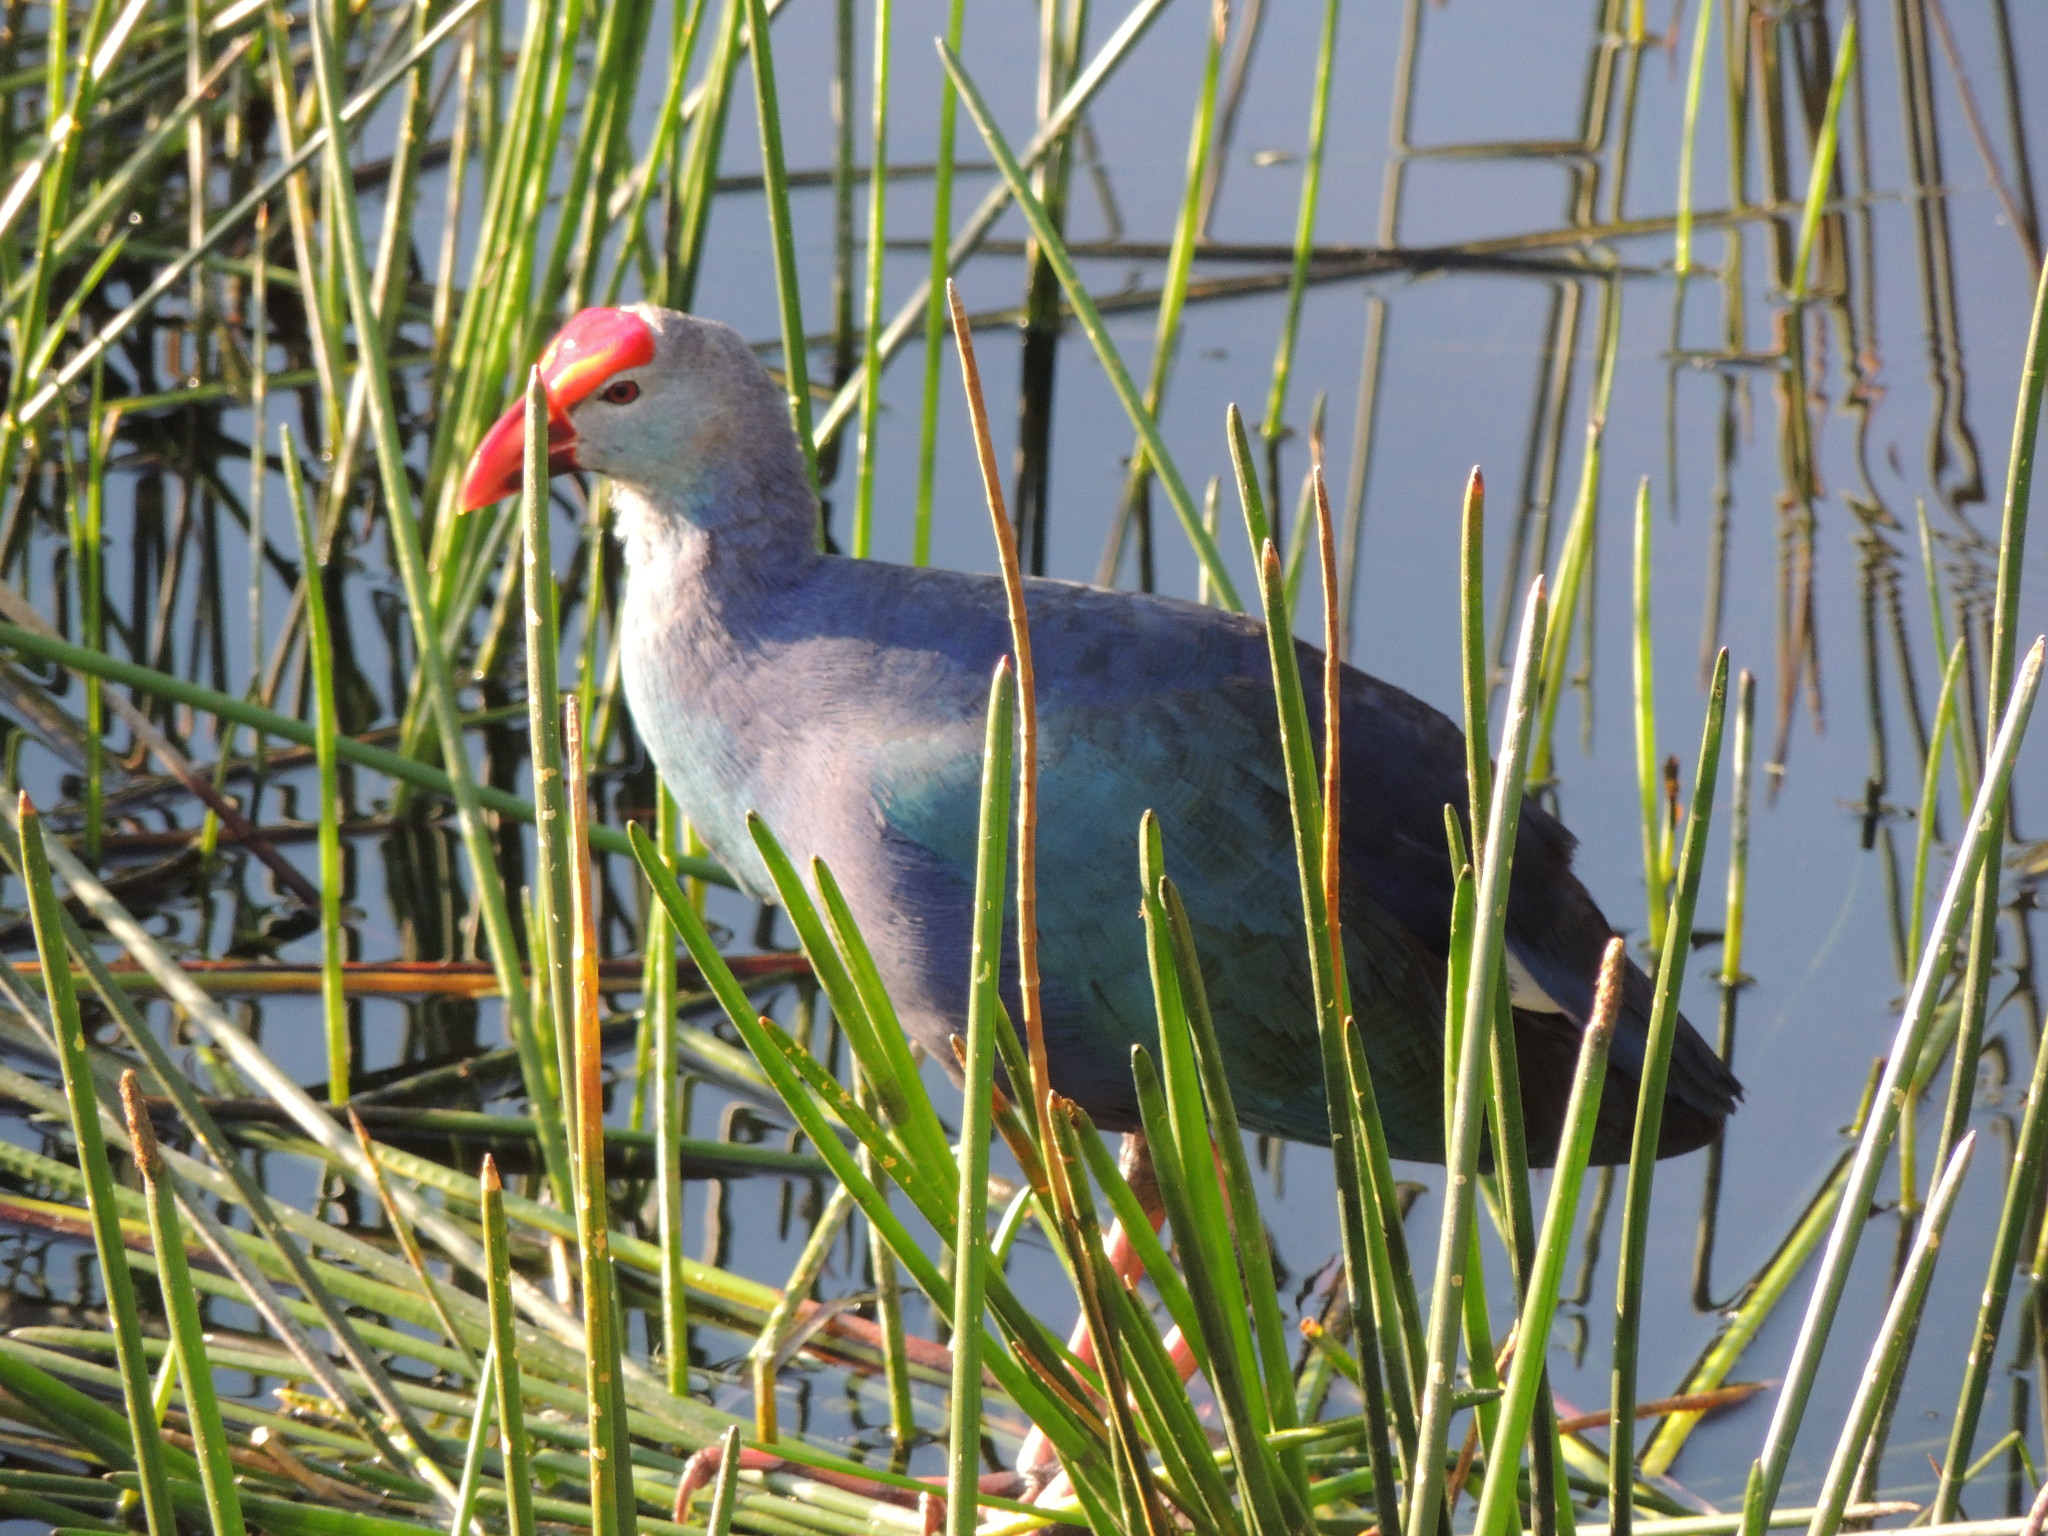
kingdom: Animalia
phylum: Chordata
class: Aves
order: Gruiformes
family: Rallidae
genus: Porphyrio
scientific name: Porphyrio porphyrio
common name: Purple swamphen
